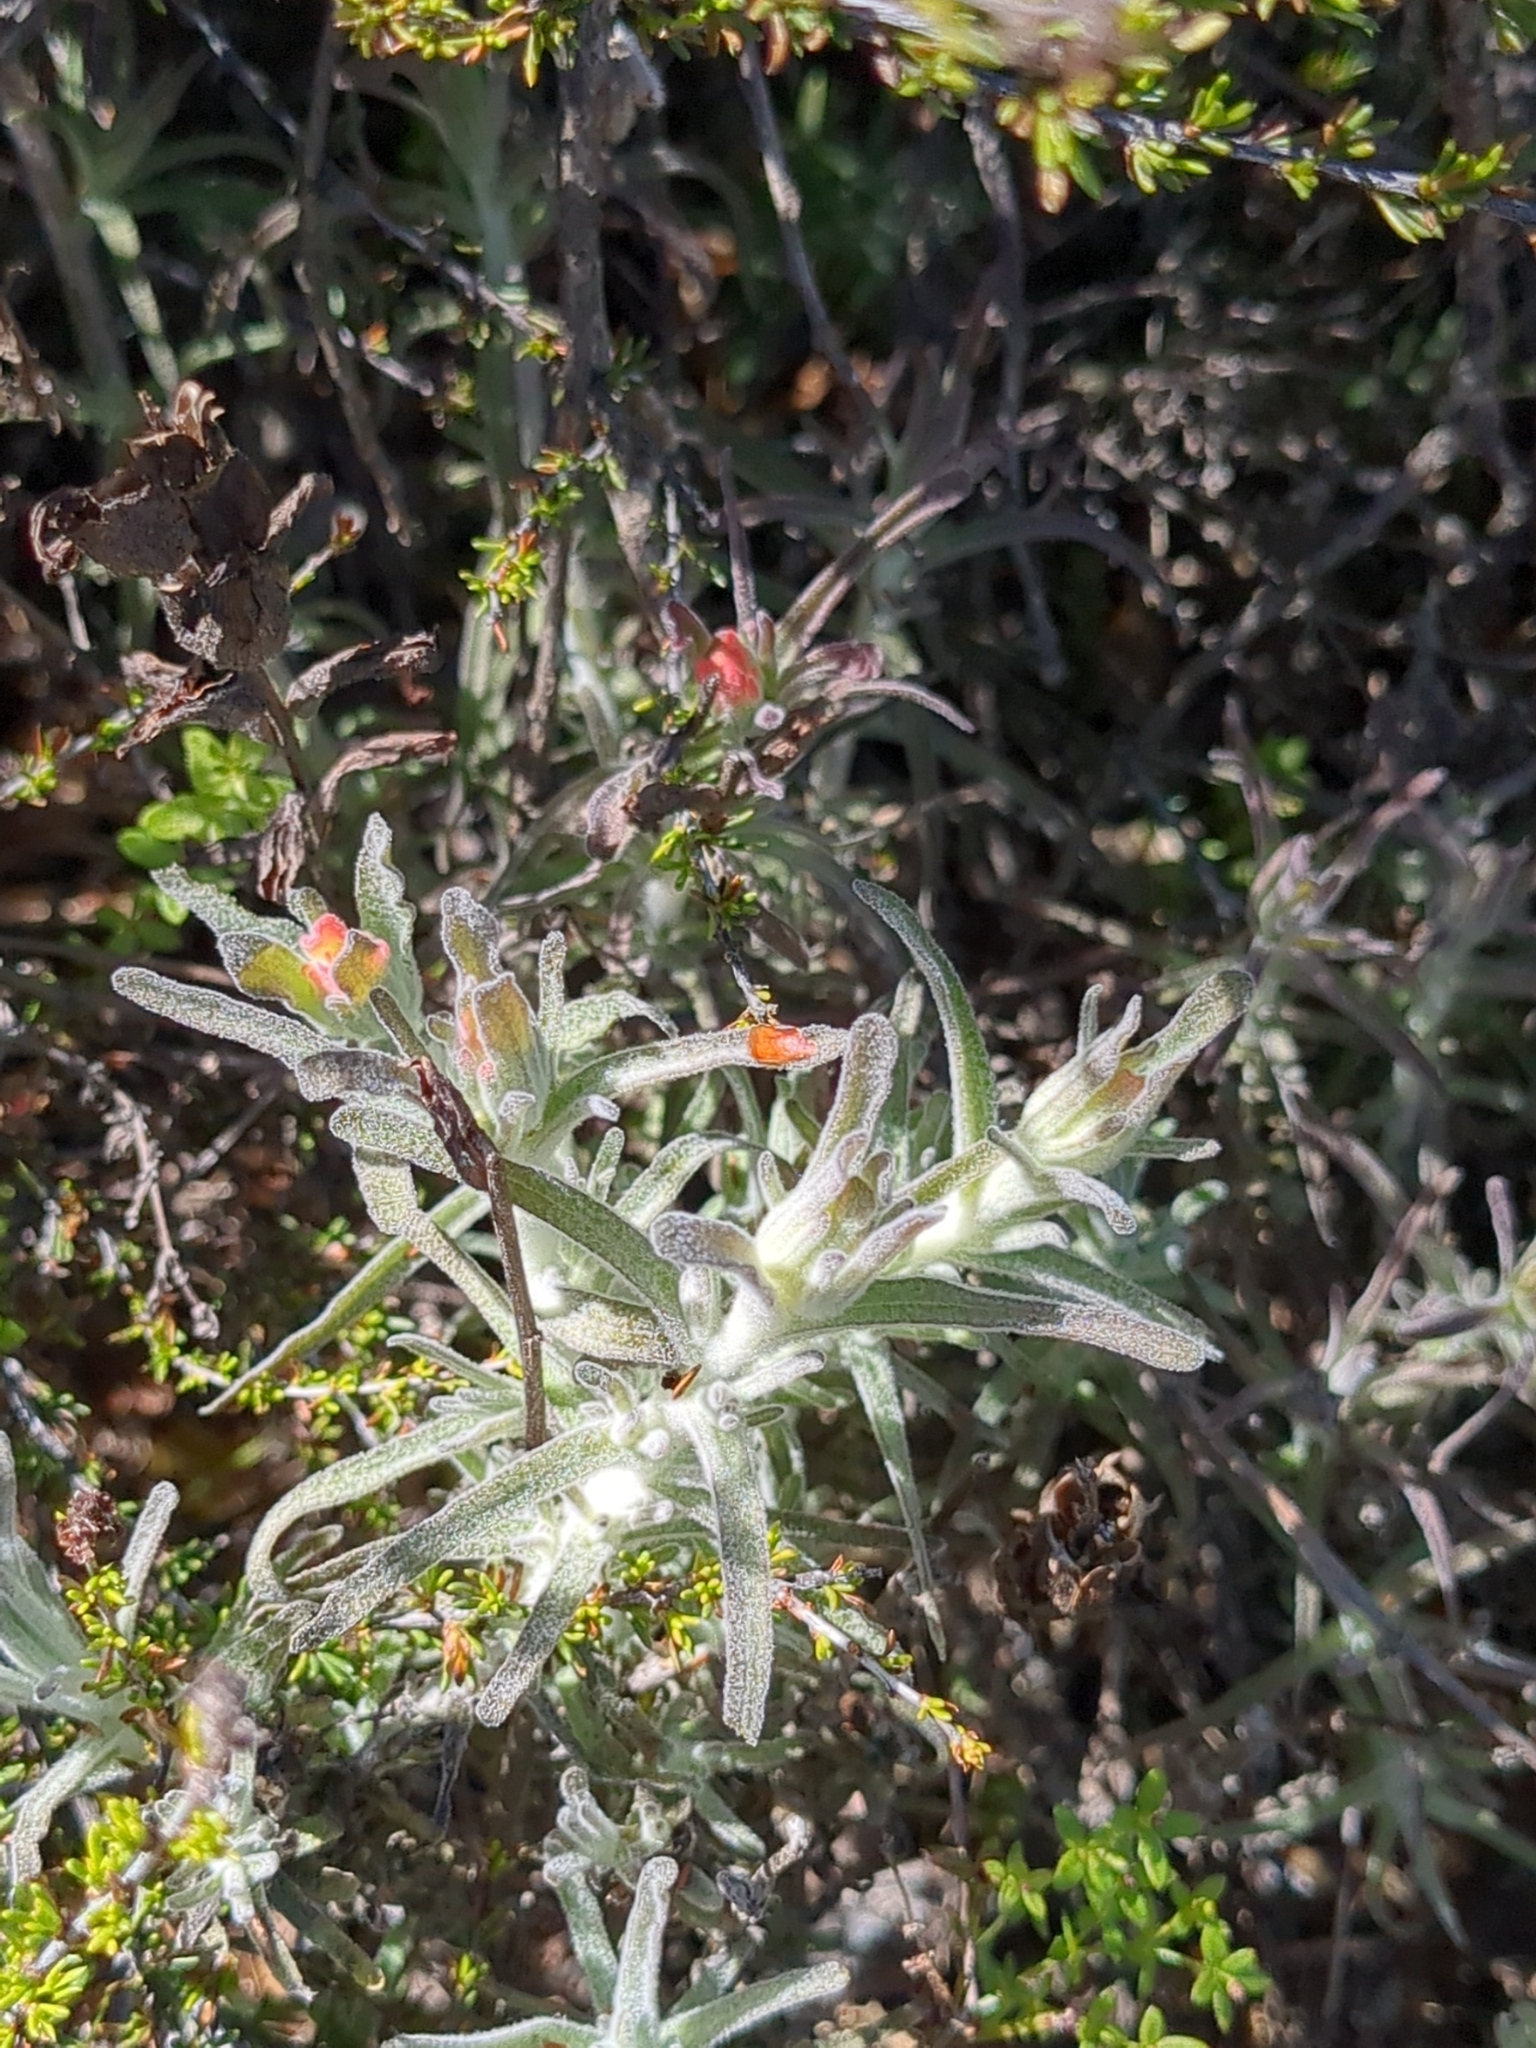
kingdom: Plantae
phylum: Tracheophyta
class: Magnoliopsida
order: Lamiales
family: Orobanchaceae
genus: Castilleja
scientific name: Castilleja foliolosa
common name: Woolly indian paintbrush
